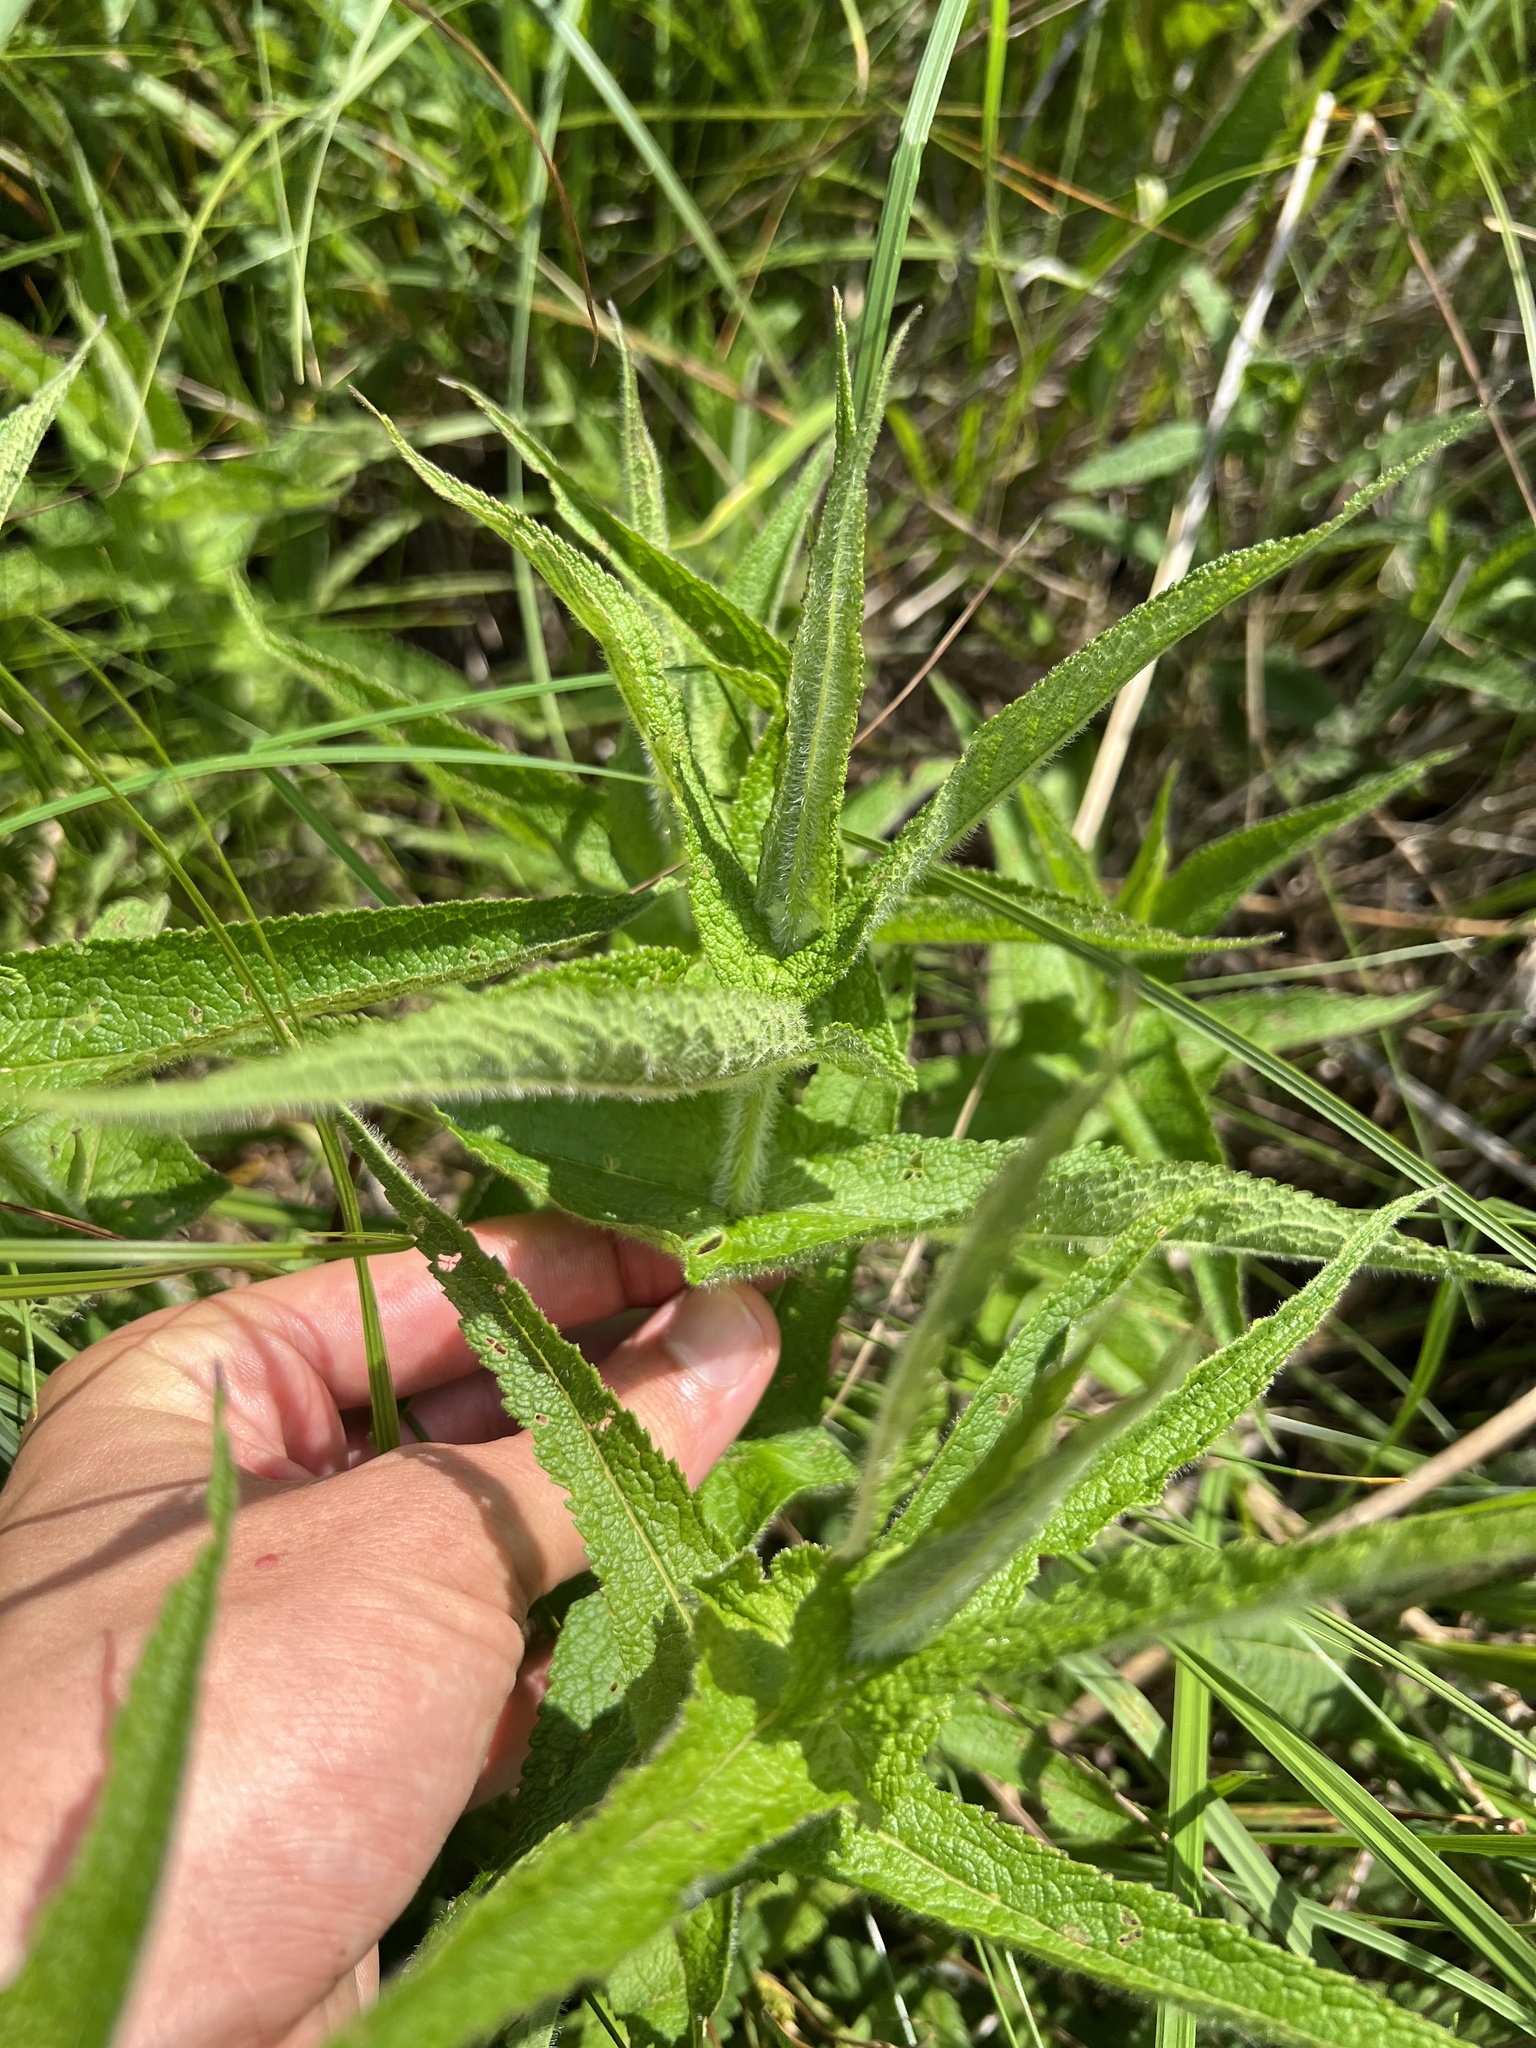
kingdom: Plantae
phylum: Tracheophyta
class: Magnoliopsida
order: Asterales
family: Asteraceae
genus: Eupatorium
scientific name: Eupatorium perfoliatum
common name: Boneset
